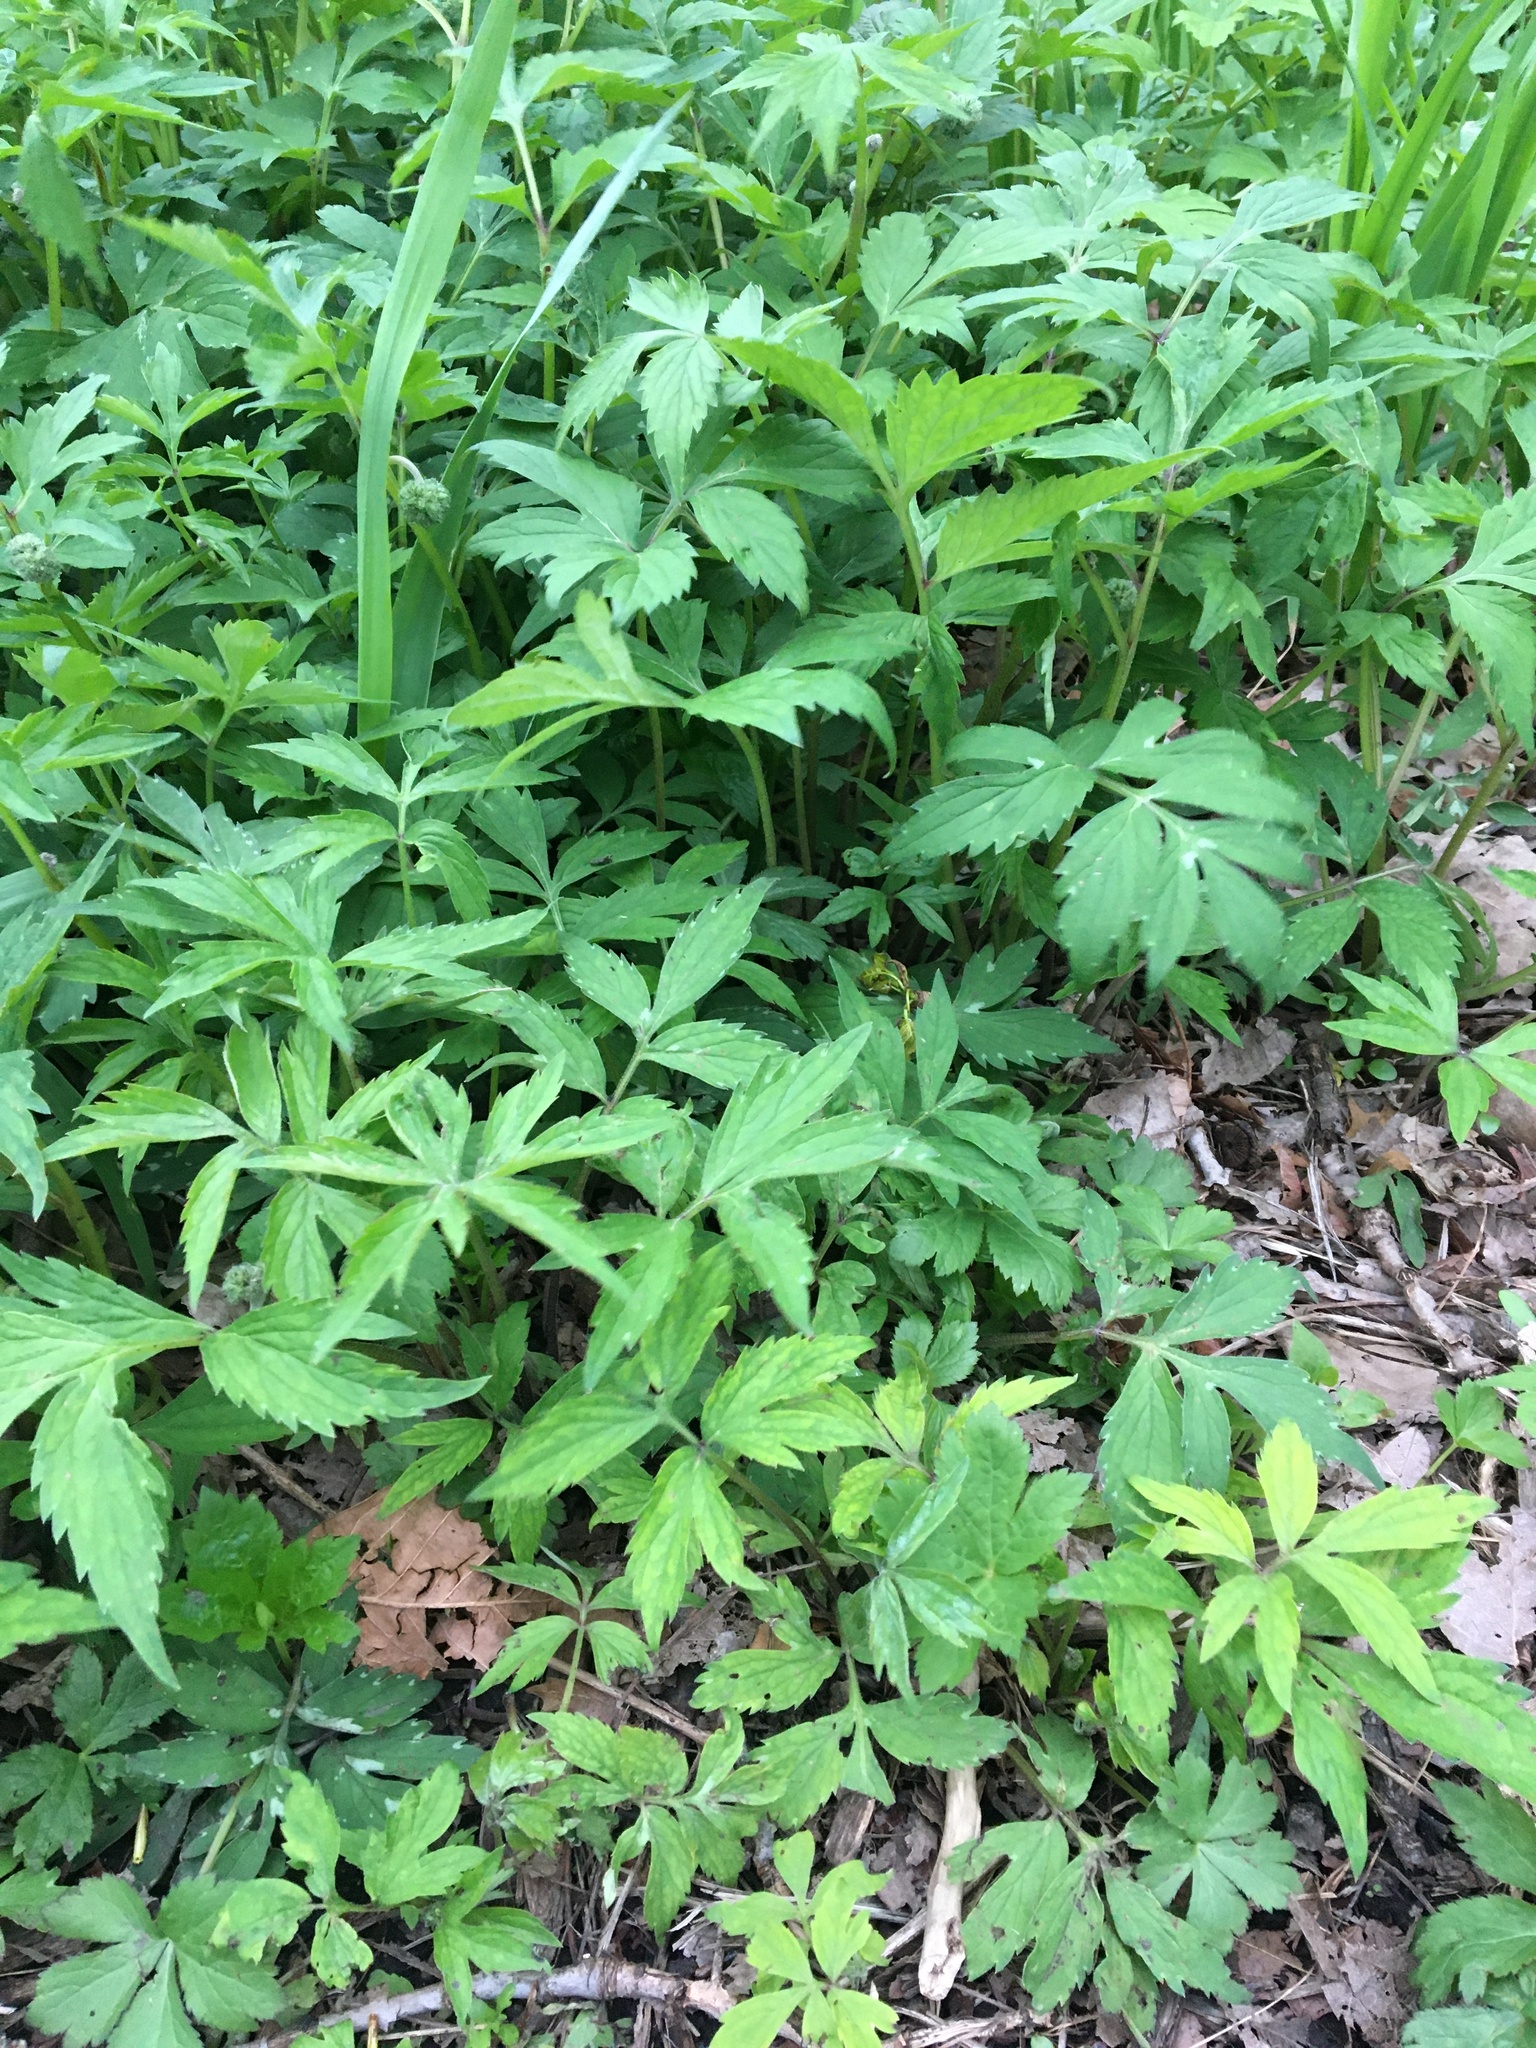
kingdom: Plantae
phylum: Tracheophyta
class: Magnoliopsida
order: Boraginales
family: Hydrophyllaceae
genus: Hydrophyllum
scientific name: Hydrophyllum virginianum
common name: Virginia waterleaf
